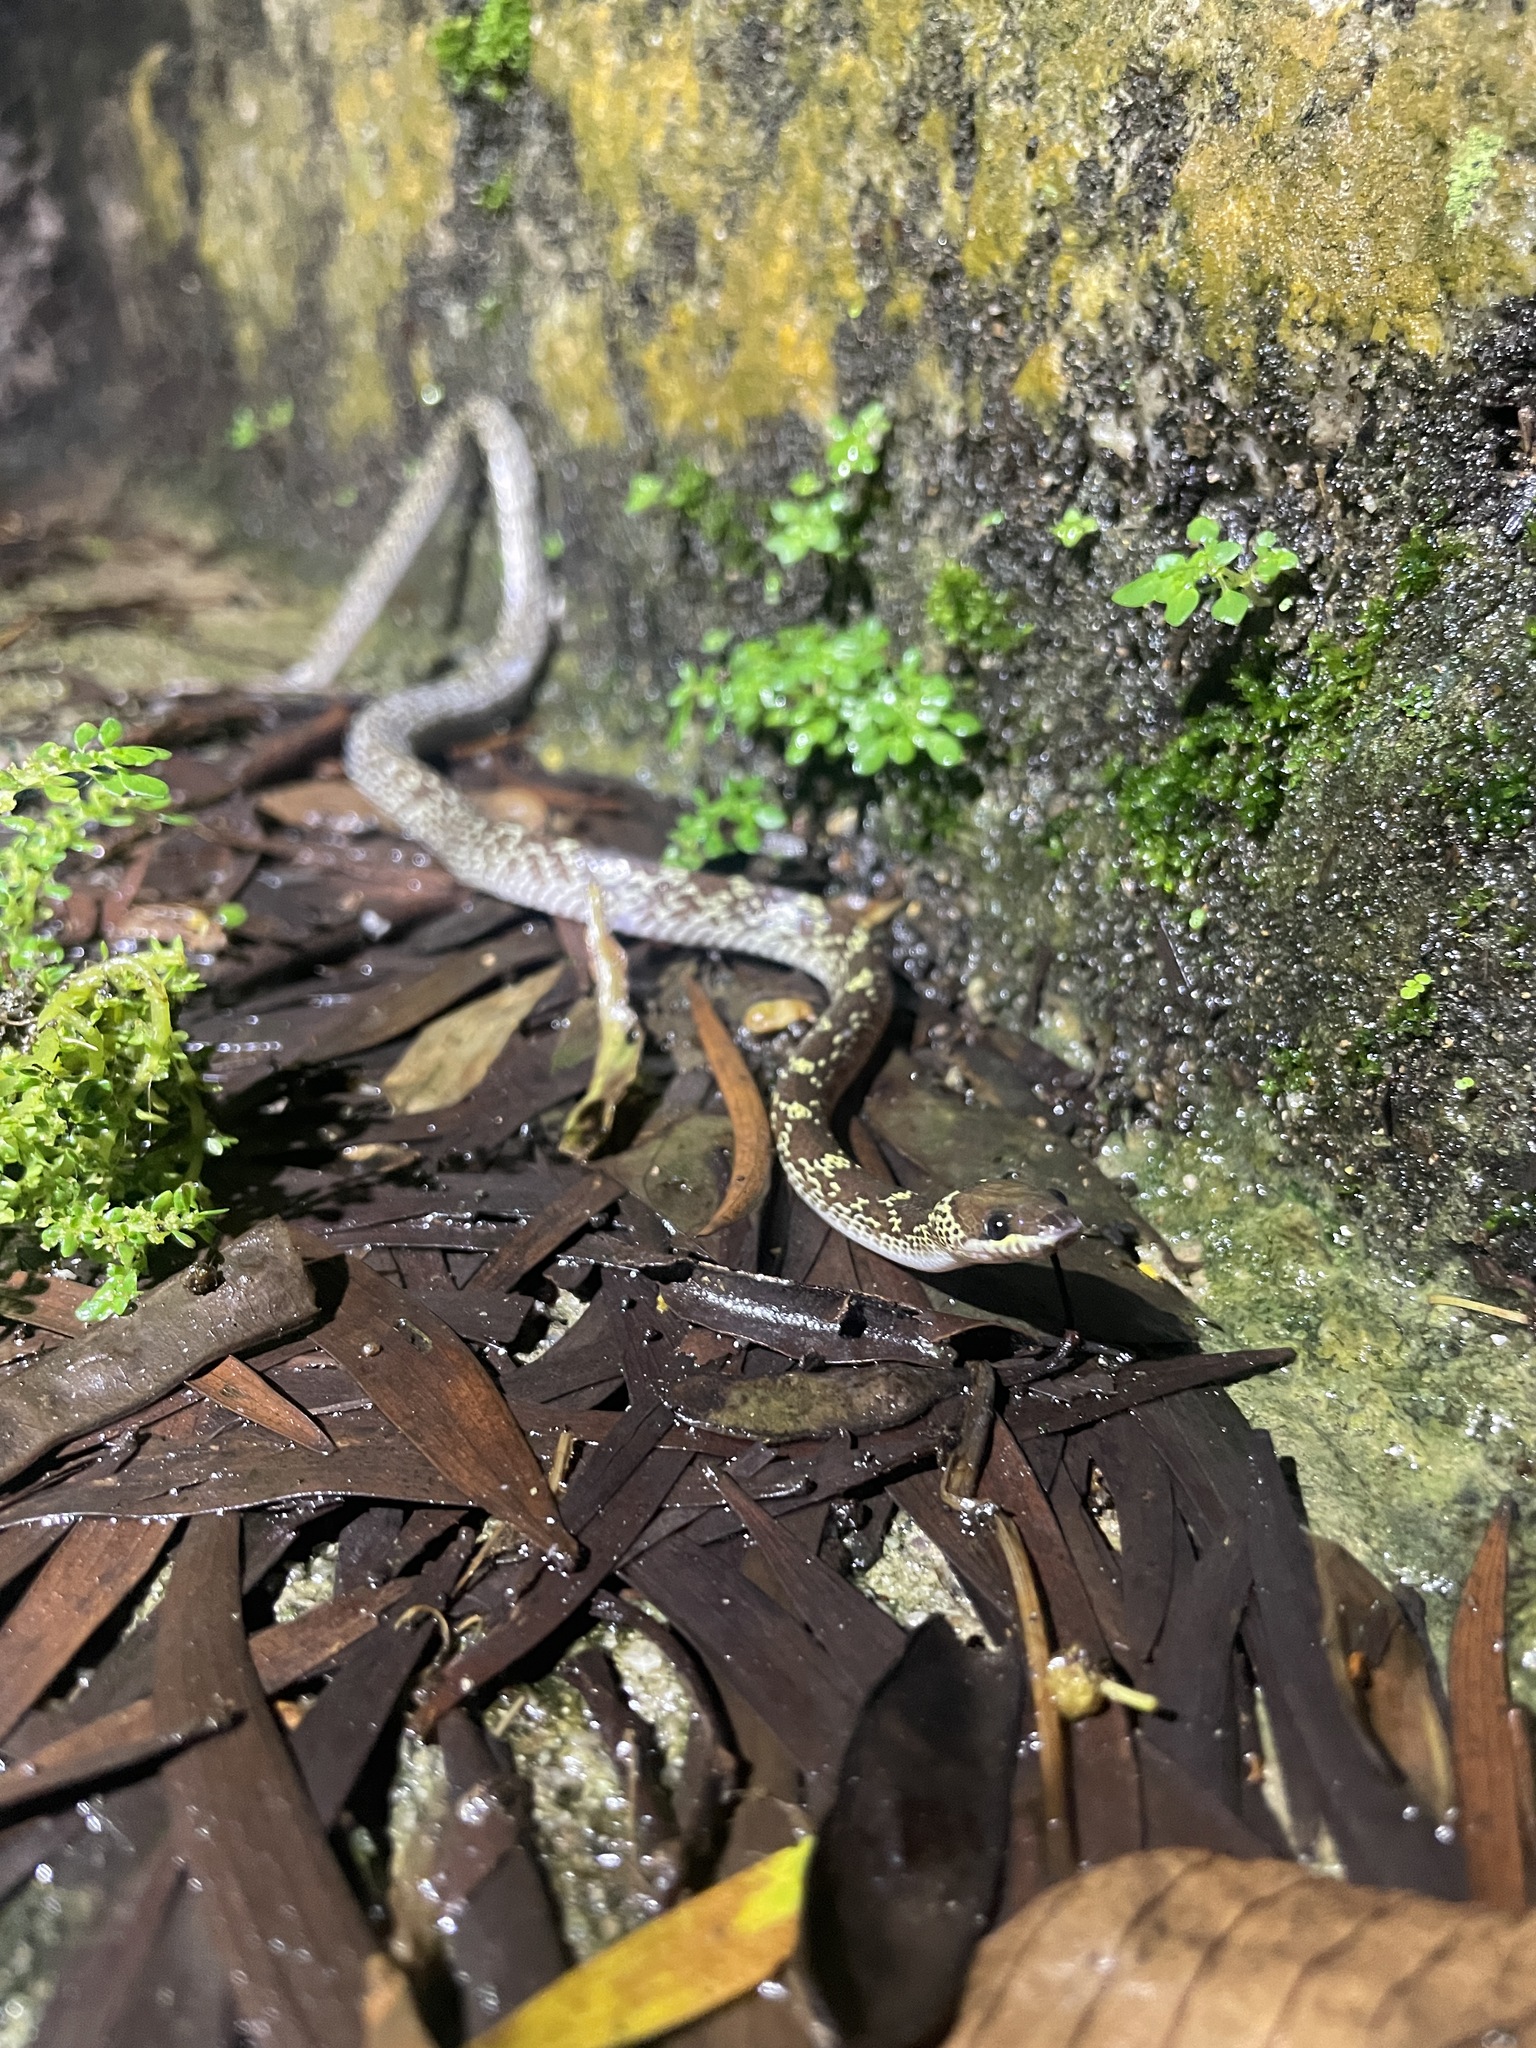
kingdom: Animalia
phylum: Chordata
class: Squamata
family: Colubridae
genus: Lycodon
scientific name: Lycodon capucinus
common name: Common wold snake/house snake
